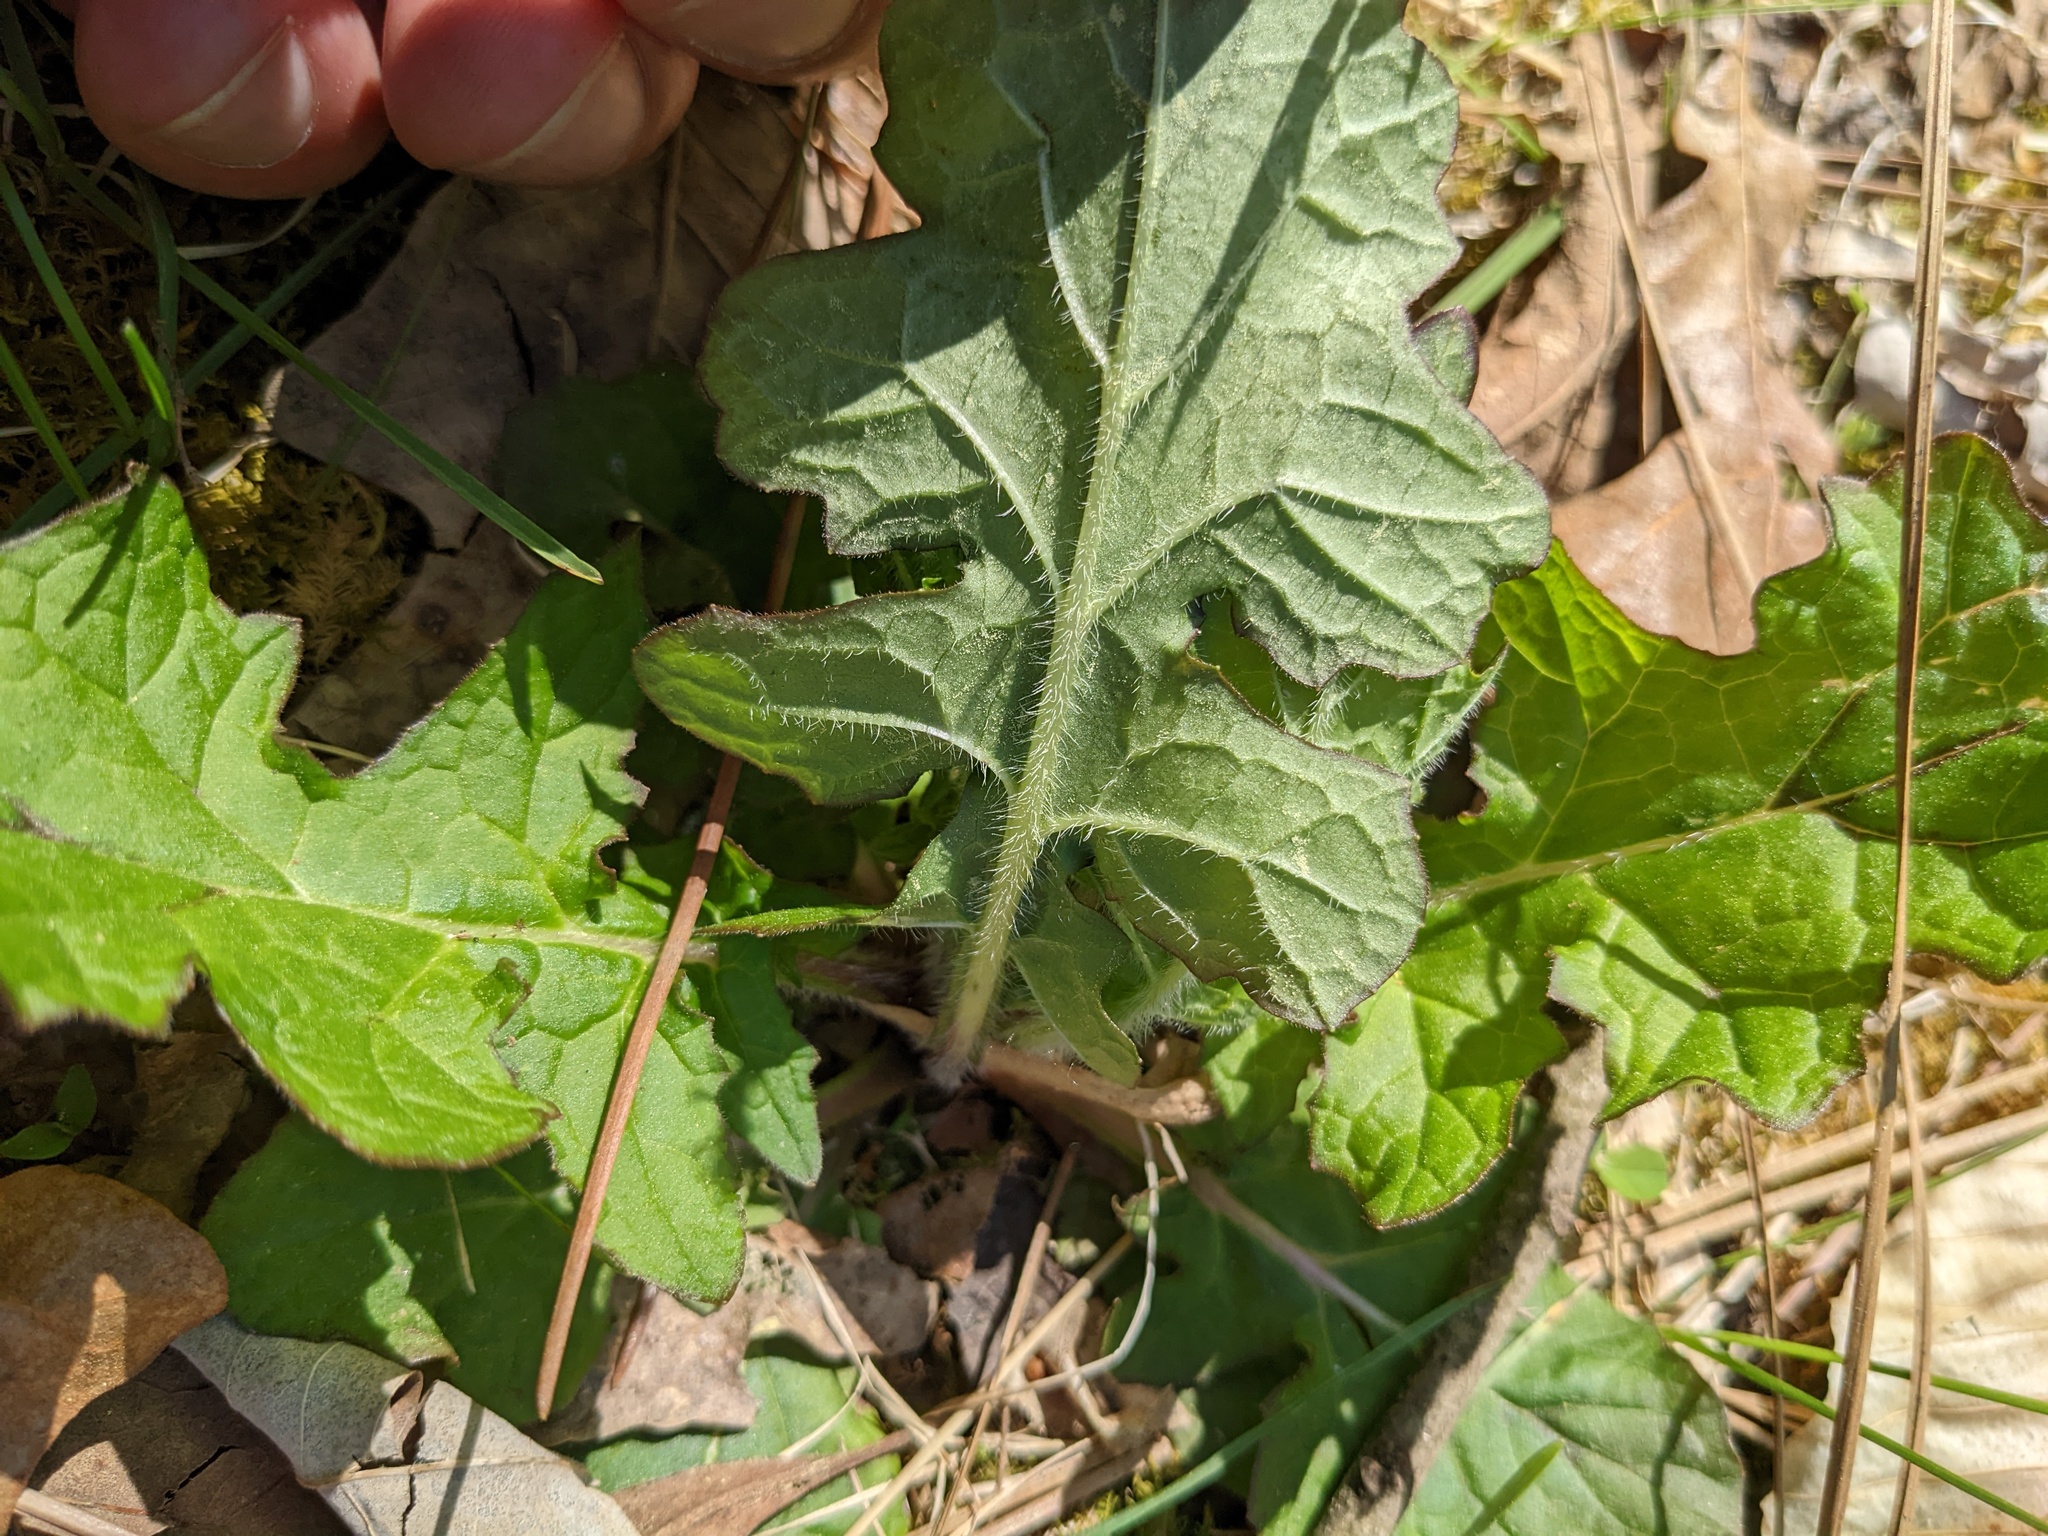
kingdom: Plantae
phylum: Tracheophyta
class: Magnoliopsida
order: Lamiales
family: Lamiaceae
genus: Salvia
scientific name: Salvia lyrata
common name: Cancerweed
